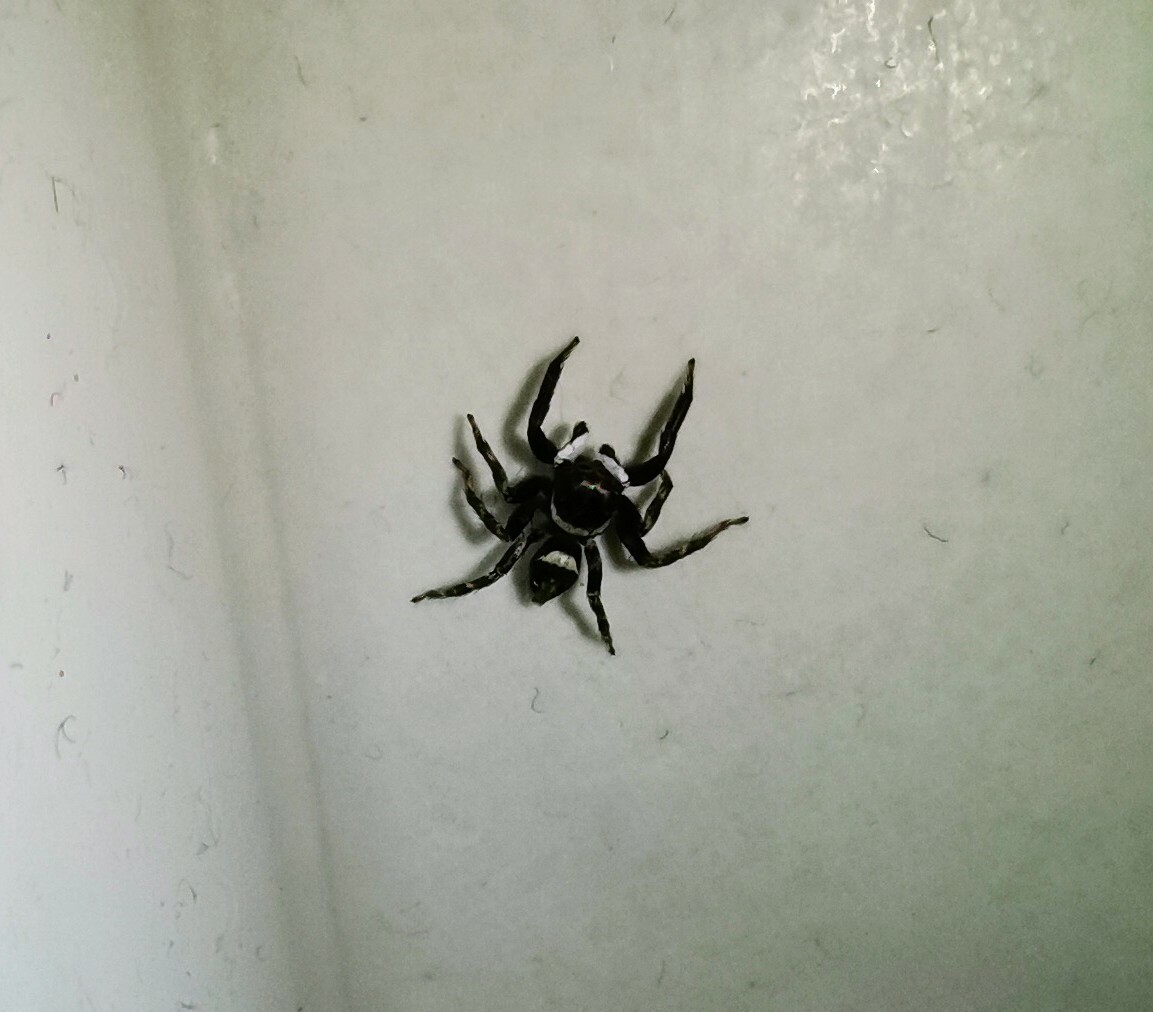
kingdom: Animalia
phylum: Arthropoda
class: Arachnida
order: Araneae
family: Salticidae
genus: Hasarius
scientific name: Hasarius adansoni
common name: Jumping spider
